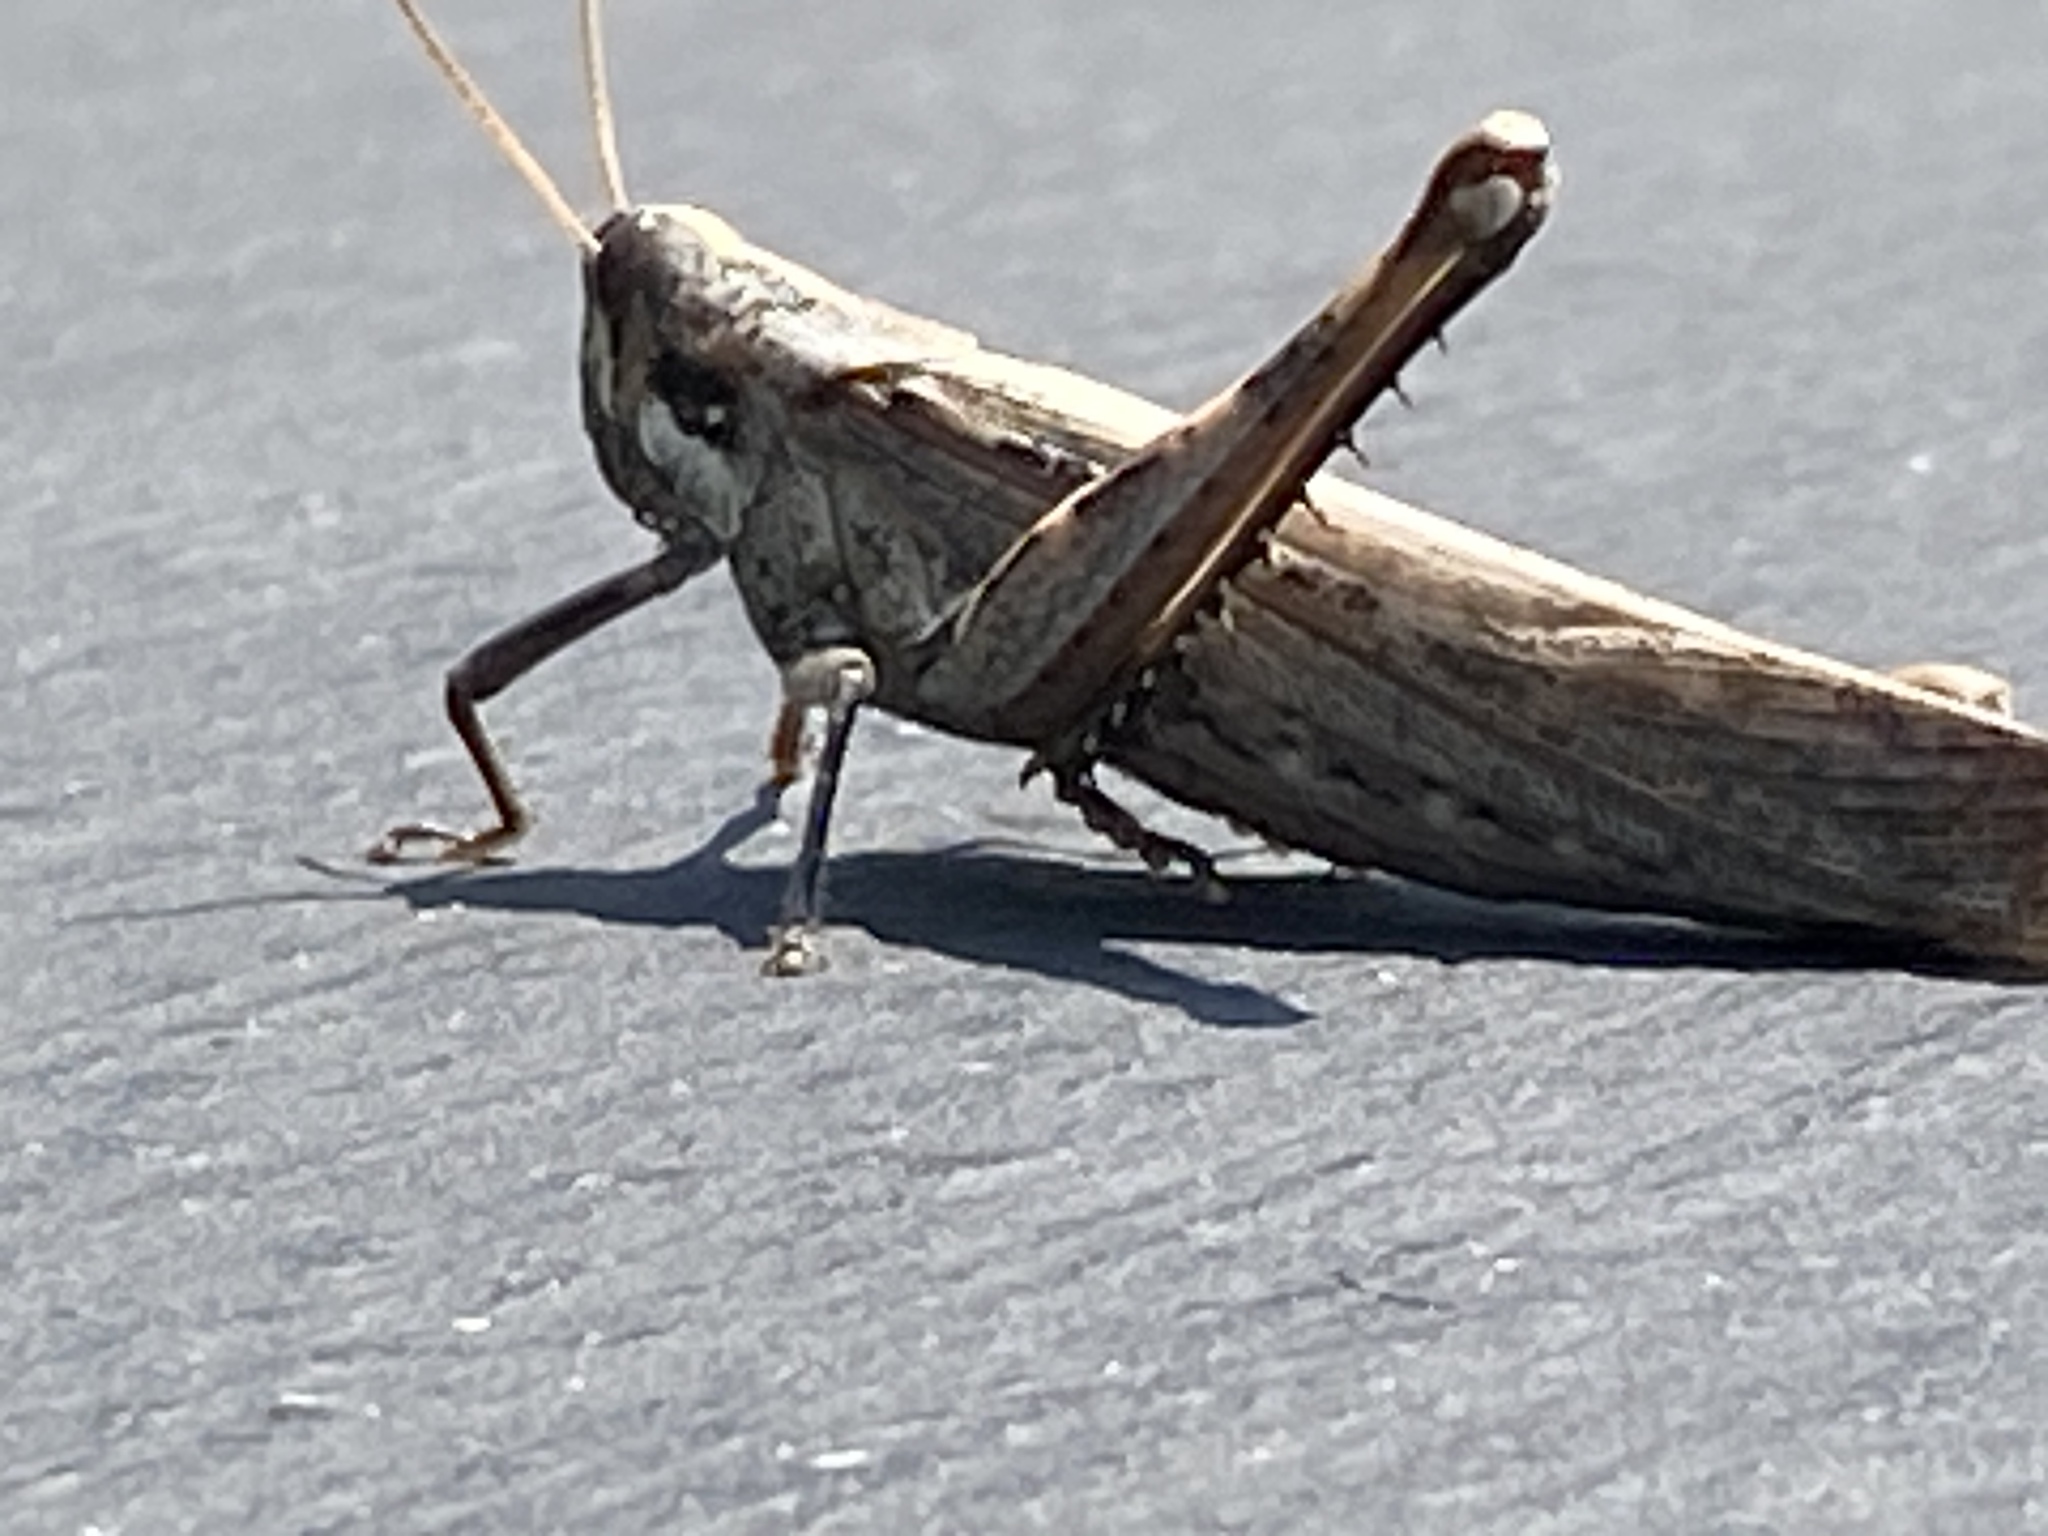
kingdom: Animalia
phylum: Arthropoda
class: Insecta
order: Orthoptera
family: Acrididae
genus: Schistocerca
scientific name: Schistocerca nitens
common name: Vagrant grasshopper
